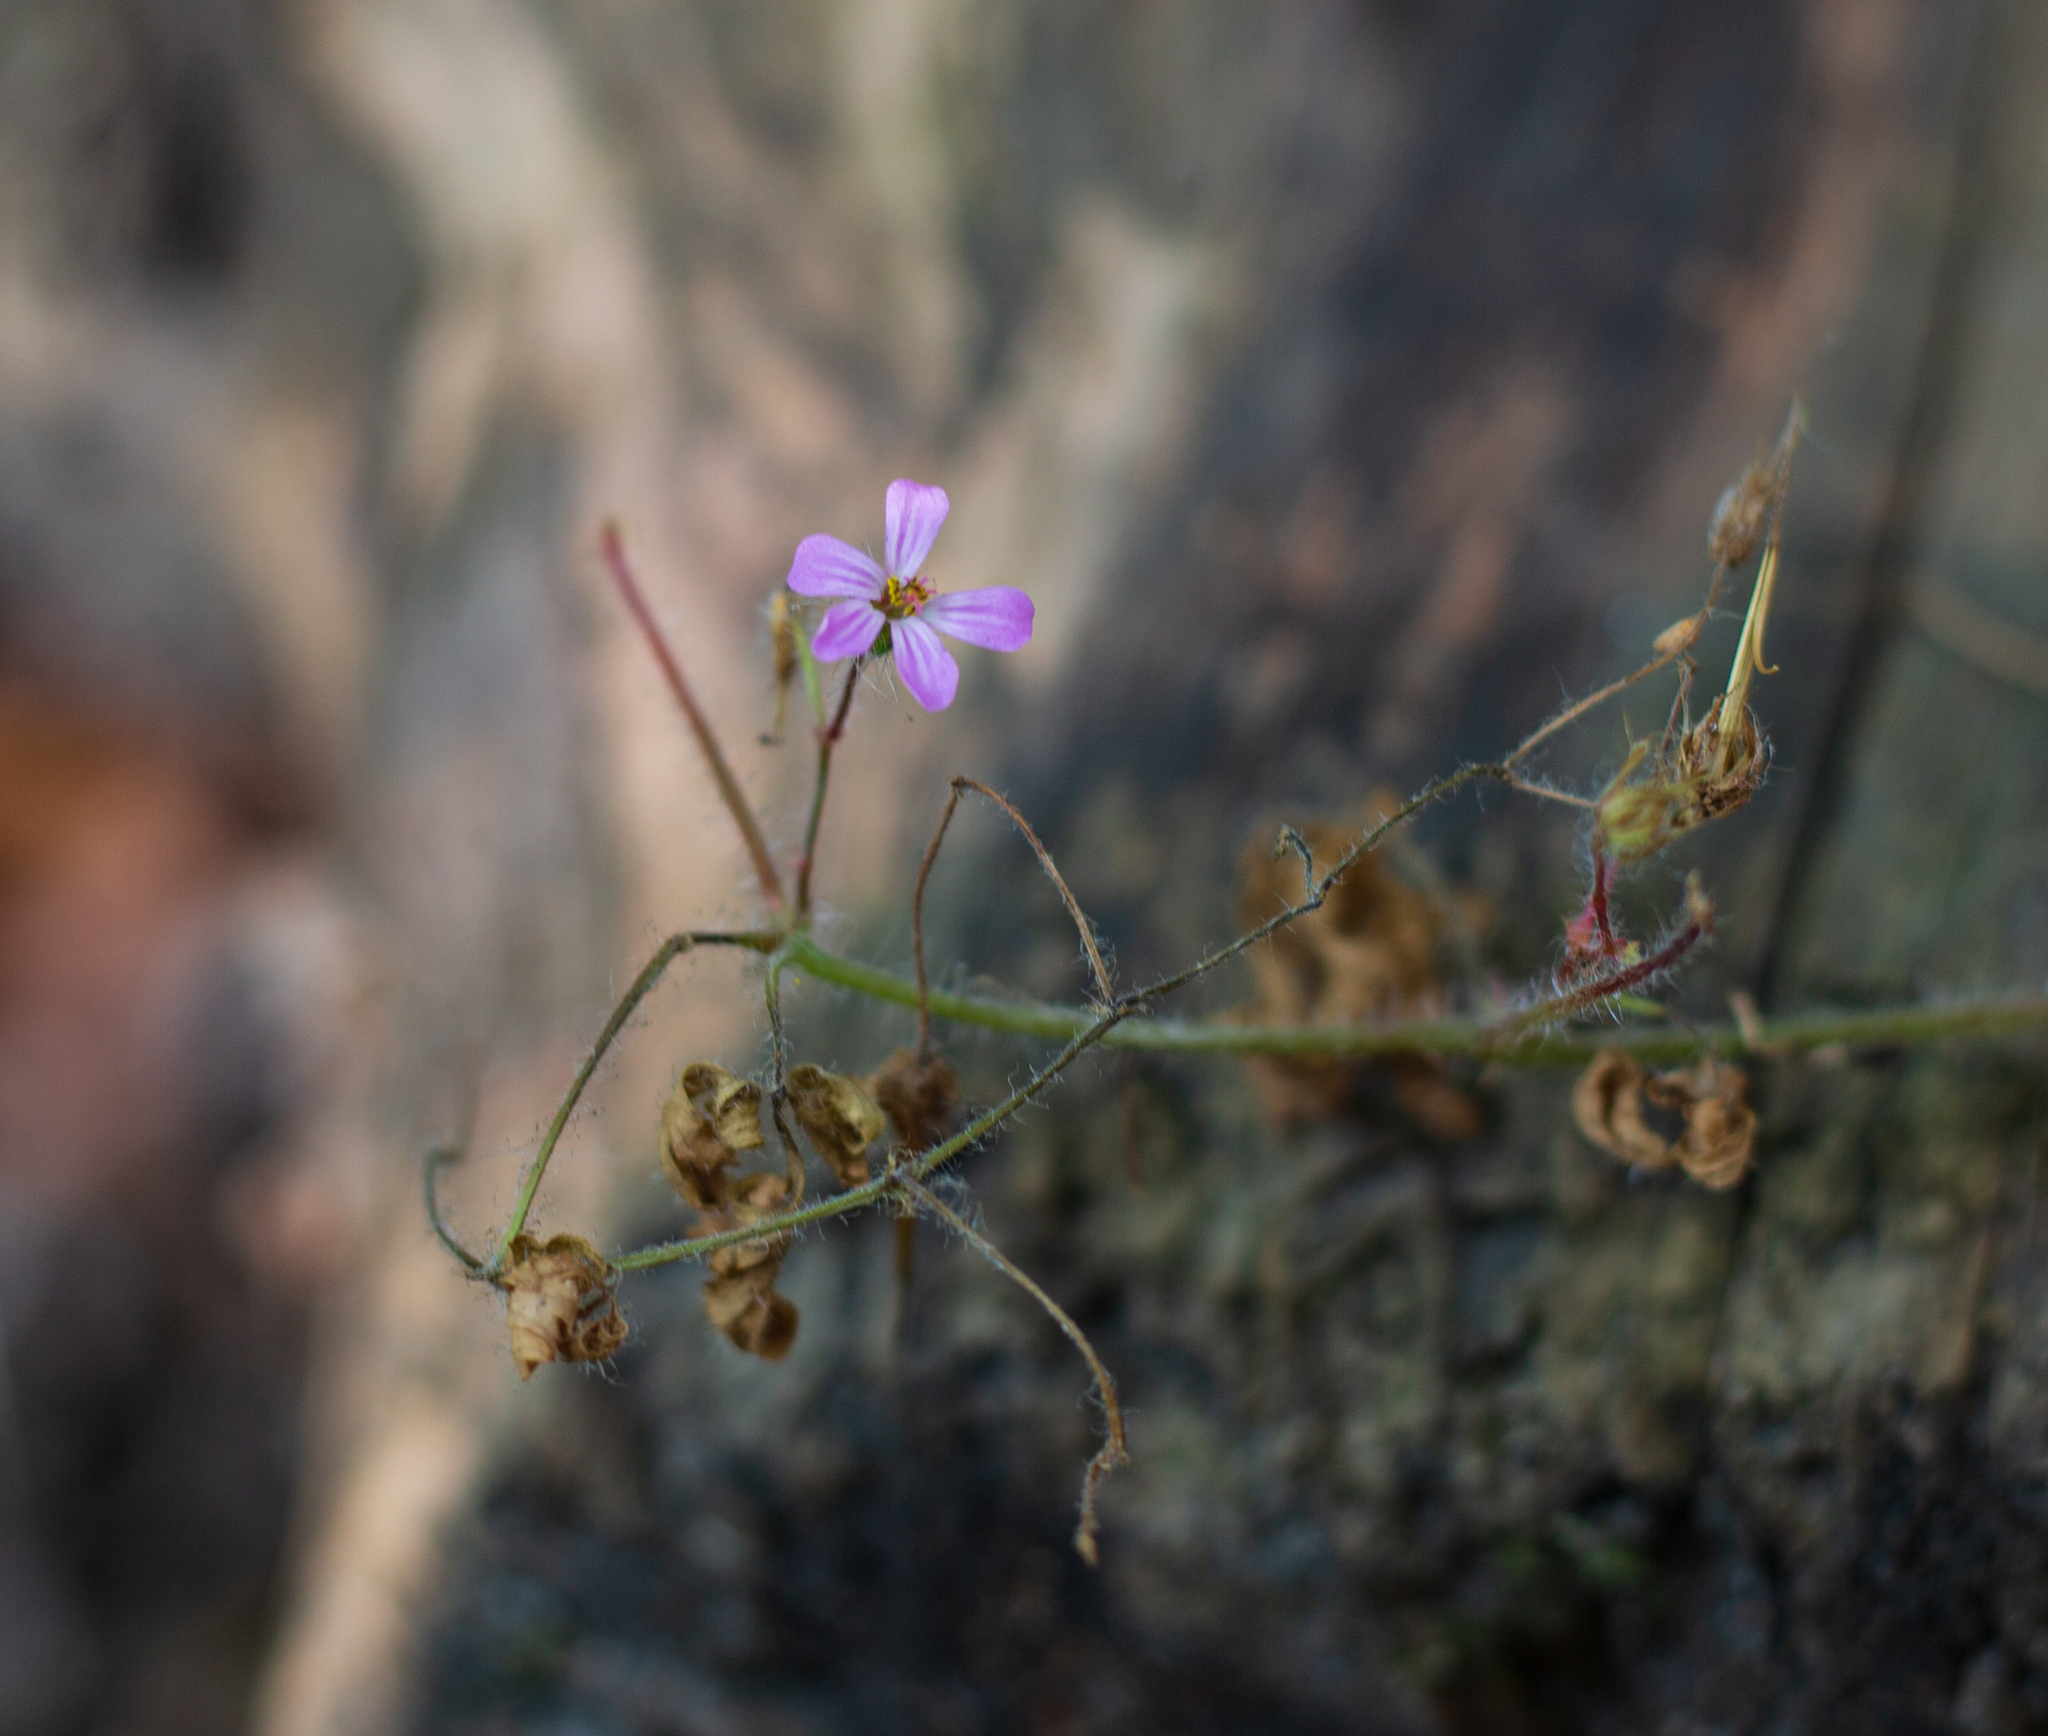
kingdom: Plantae
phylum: Tracheophyta
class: Magnoliopsida
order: Geraniales
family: Geraniaceae
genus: Geranium
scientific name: Geranium robertianum
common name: Herb-robert
